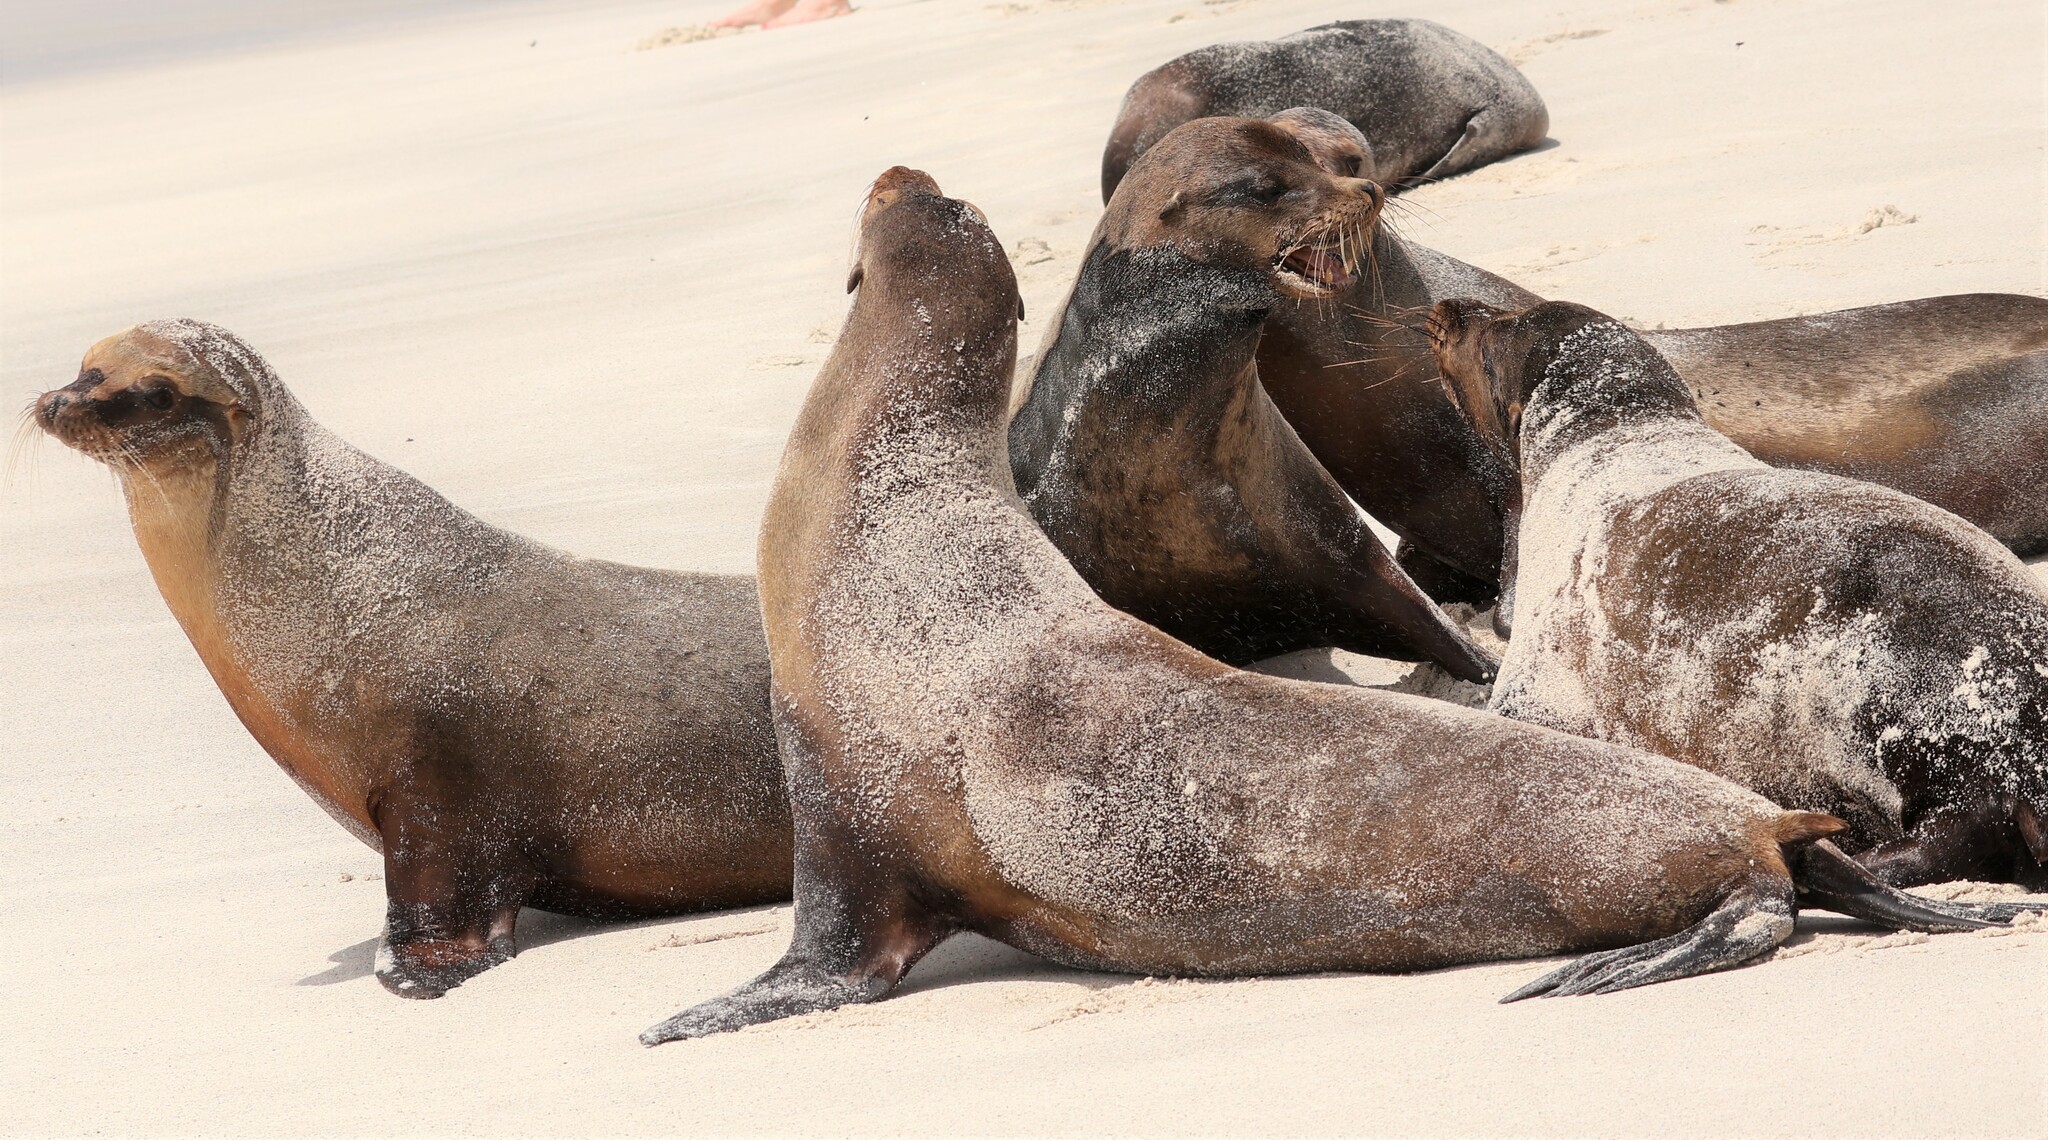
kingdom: Animalia
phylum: Chordata
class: Mammalia
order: Carnivora
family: Otariidae
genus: Zalophus
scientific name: Zalophus wollebaeki
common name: Galapagos sea lion
